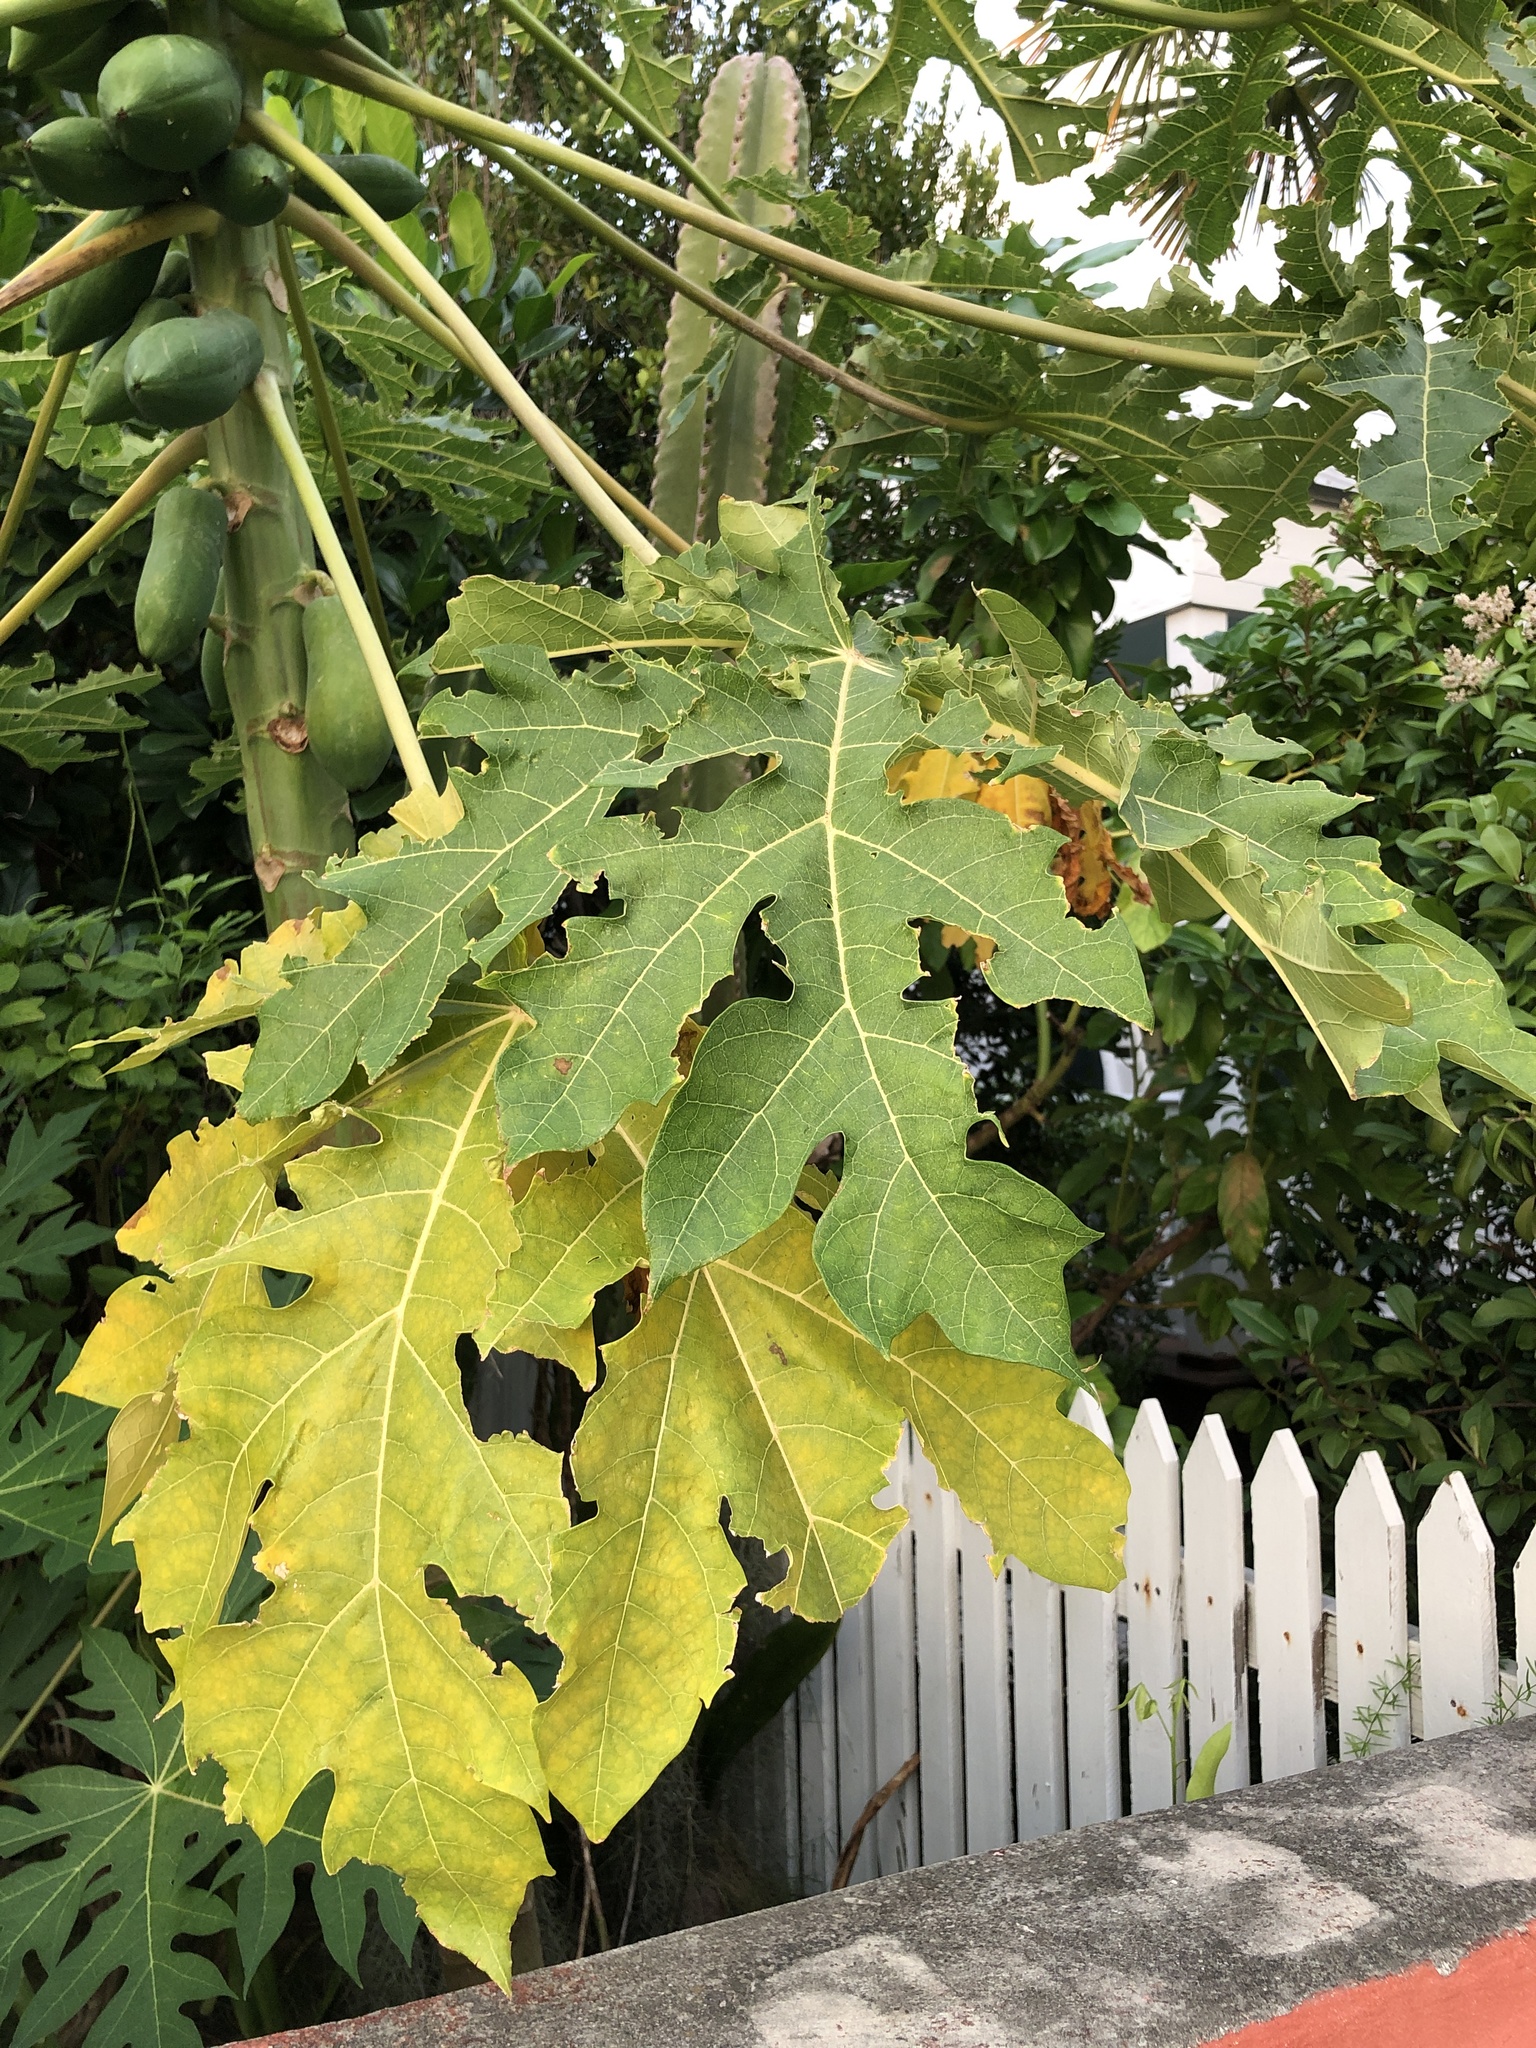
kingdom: Plantae
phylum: Tracheophyta
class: Magnoliopsida
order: Brassicales
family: Caricaceae
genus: Carica
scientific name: Carica papaya
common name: Papaya
